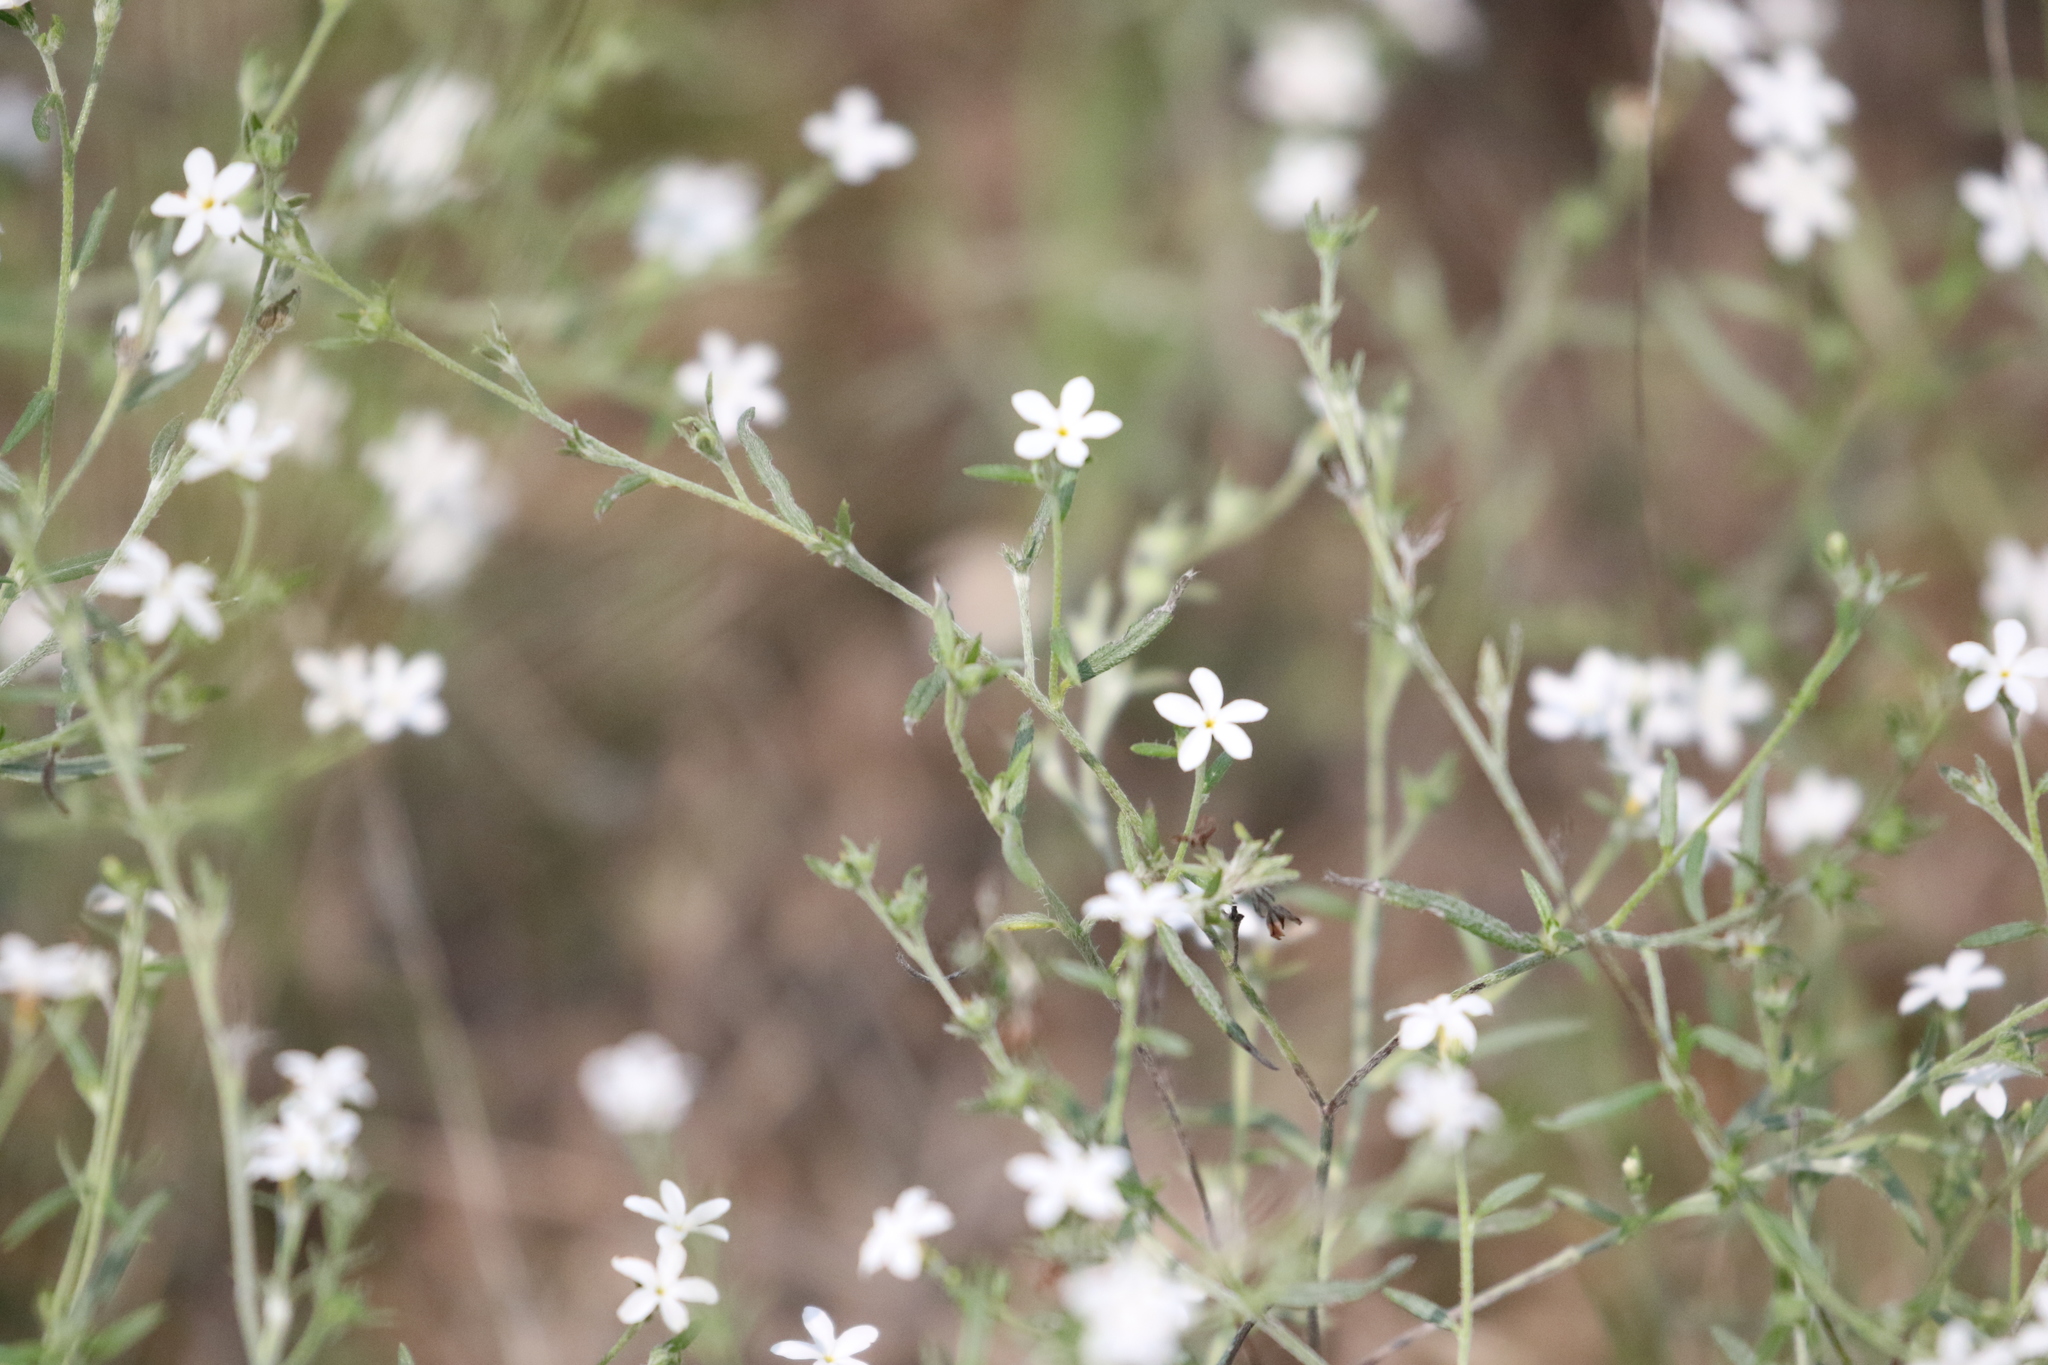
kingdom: Plantae
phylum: Tracheophyta
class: Magnoliopsida
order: Boraginales
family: Heliotropiaceae
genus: Euploca
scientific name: Euploca tenella
